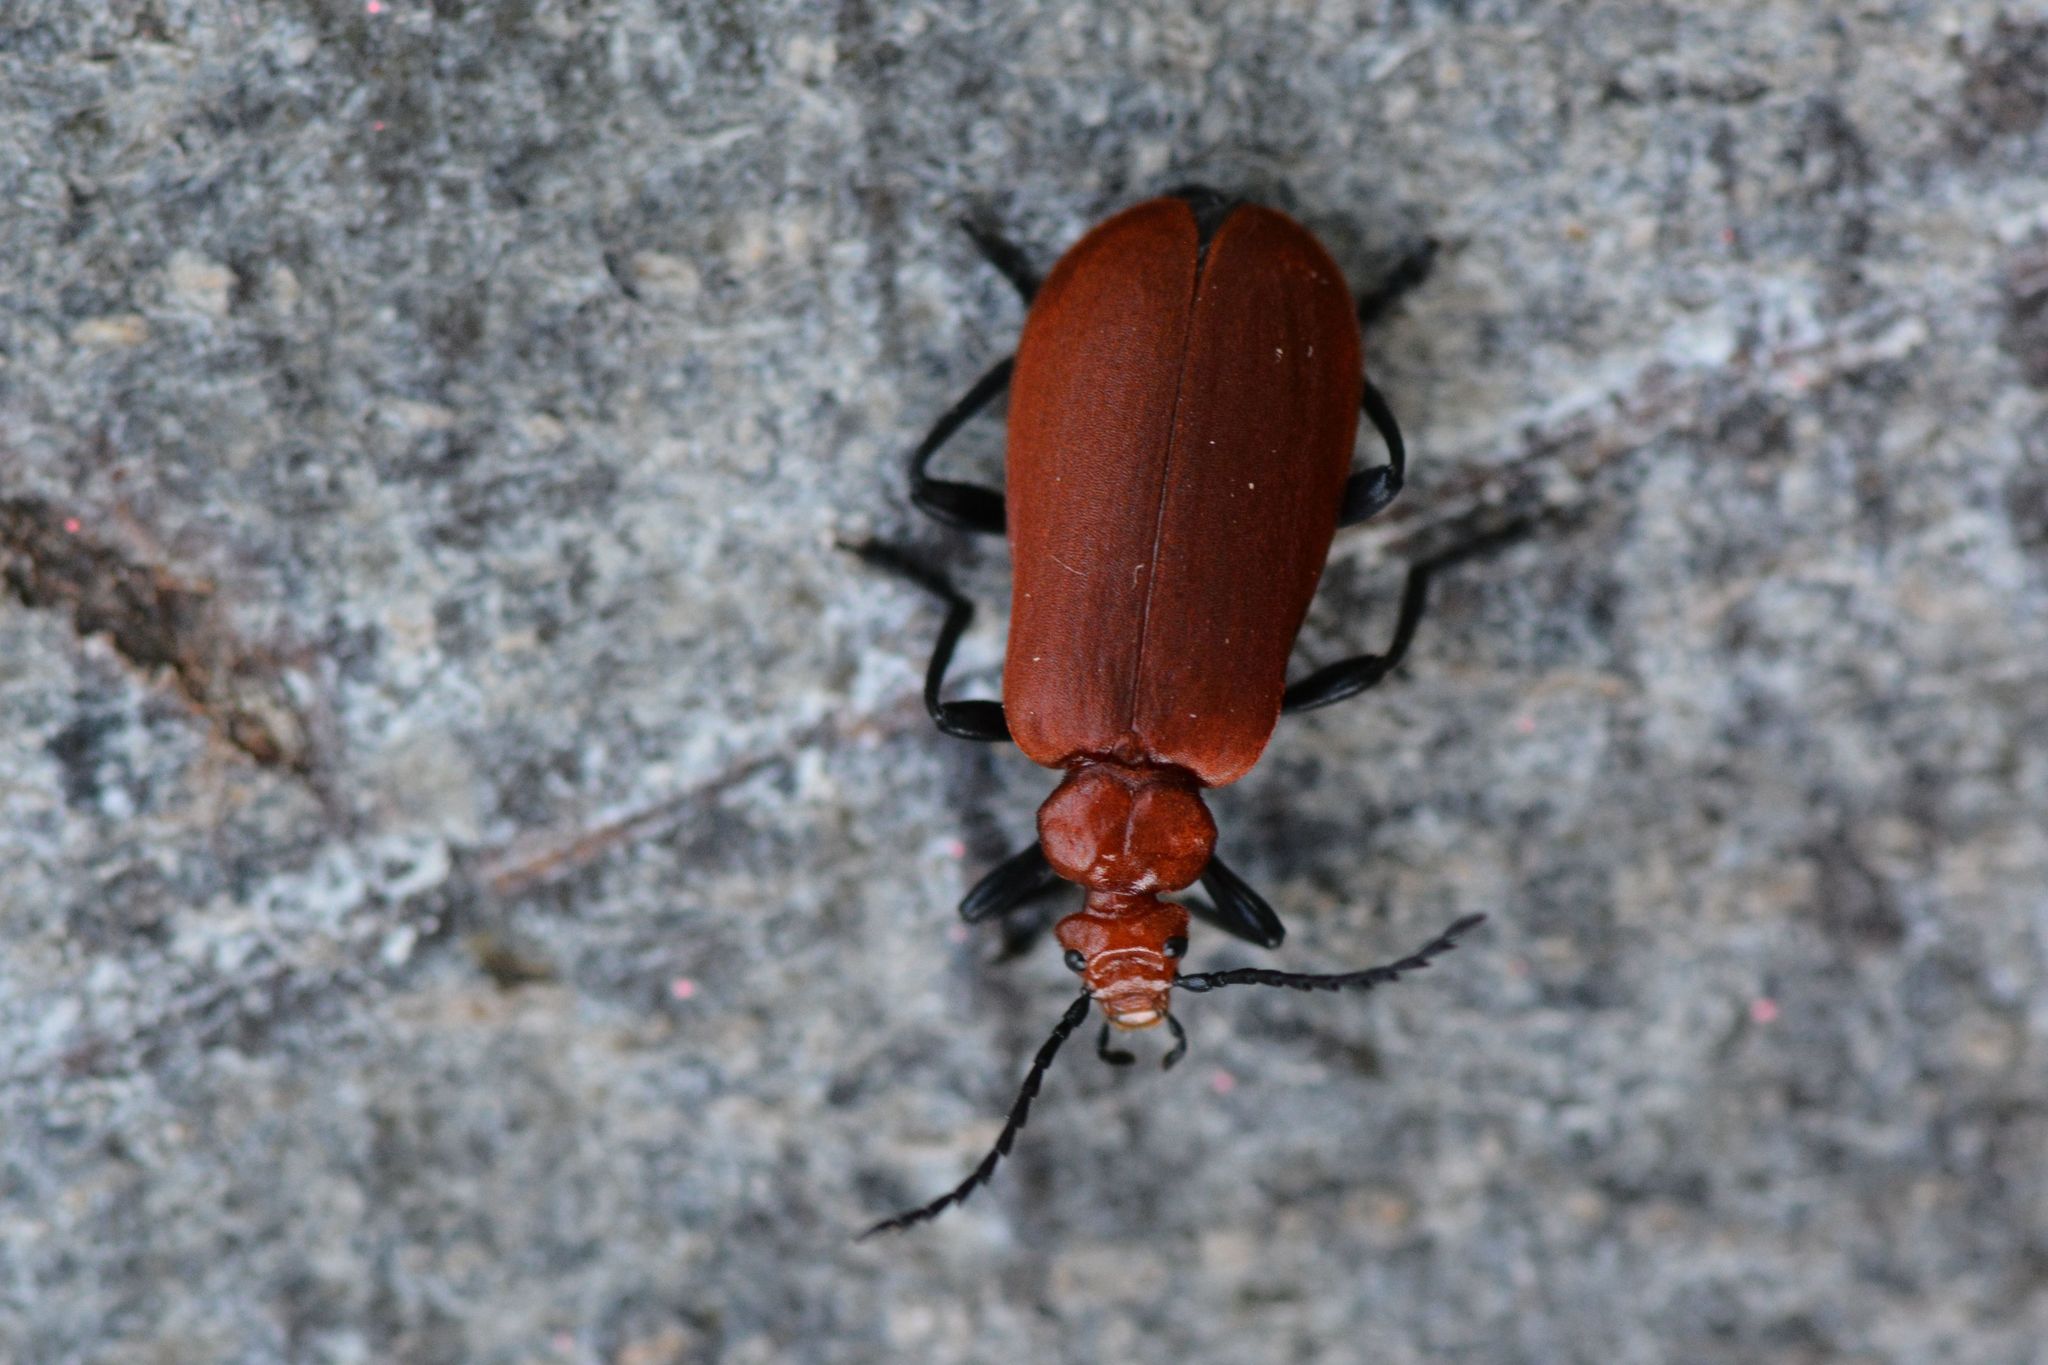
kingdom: Animalia
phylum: Arthropoda
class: Insecta
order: Coleoptera
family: Pyrochroidae
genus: Pyrochroa
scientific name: Pyrochroa serraticornis
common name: Red-headed cardinal beetle
